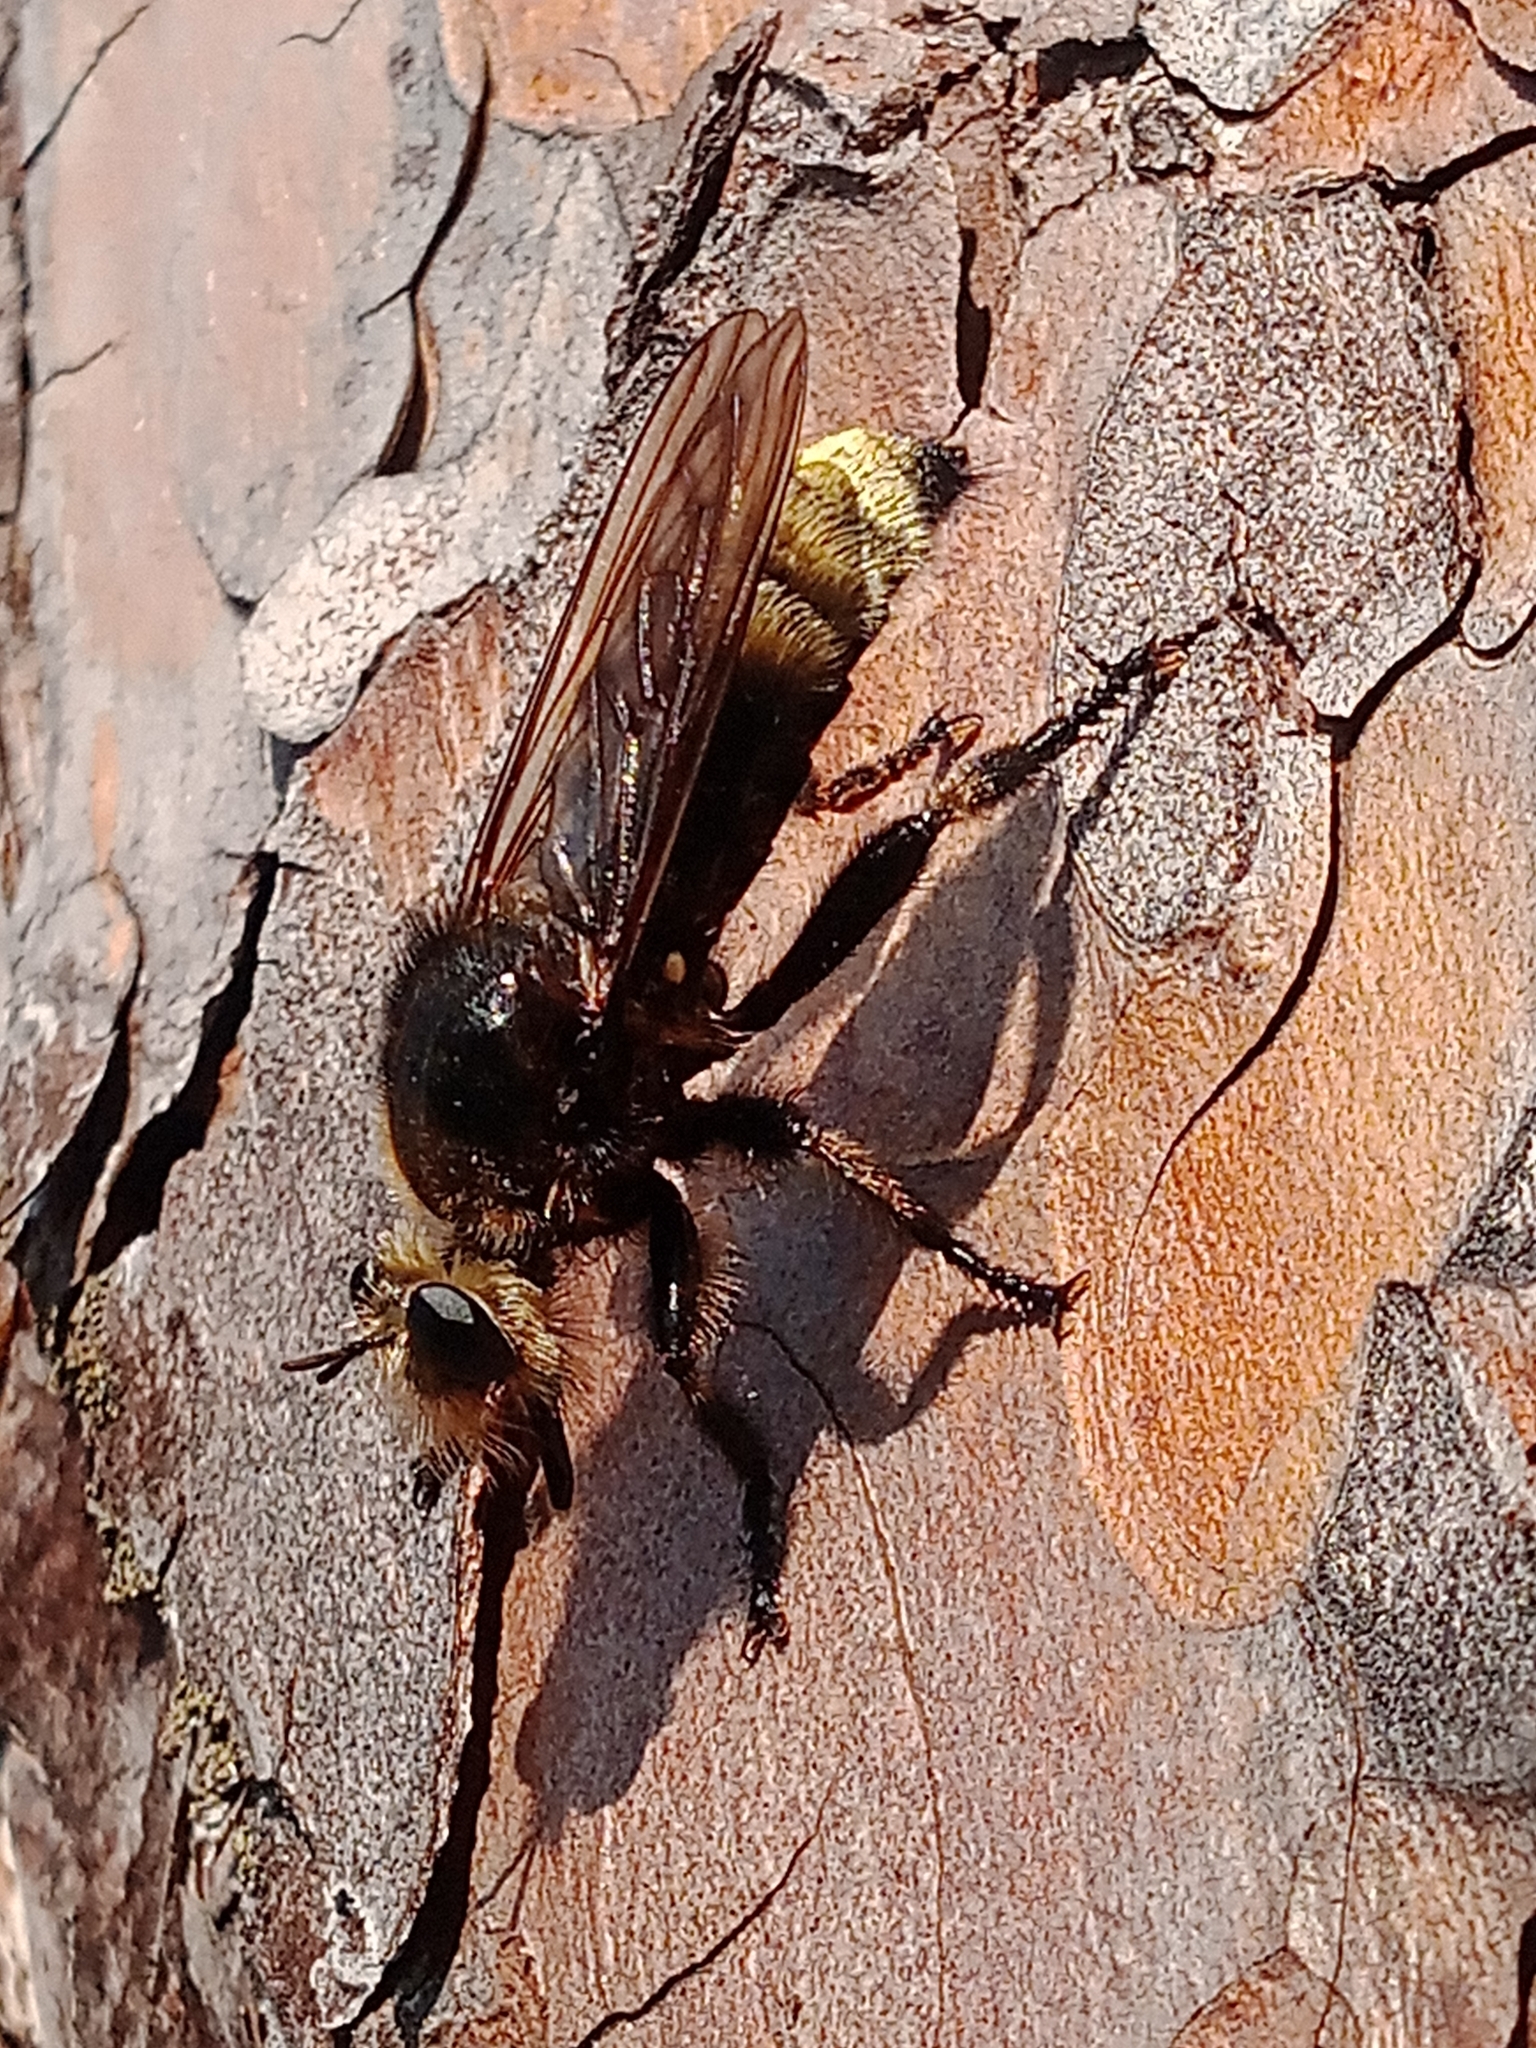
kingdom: Animalia
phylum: Arthropoda
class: Insecta
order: Diptera
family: Asilidae
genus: Laphria
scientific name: Laphria gibbosa
